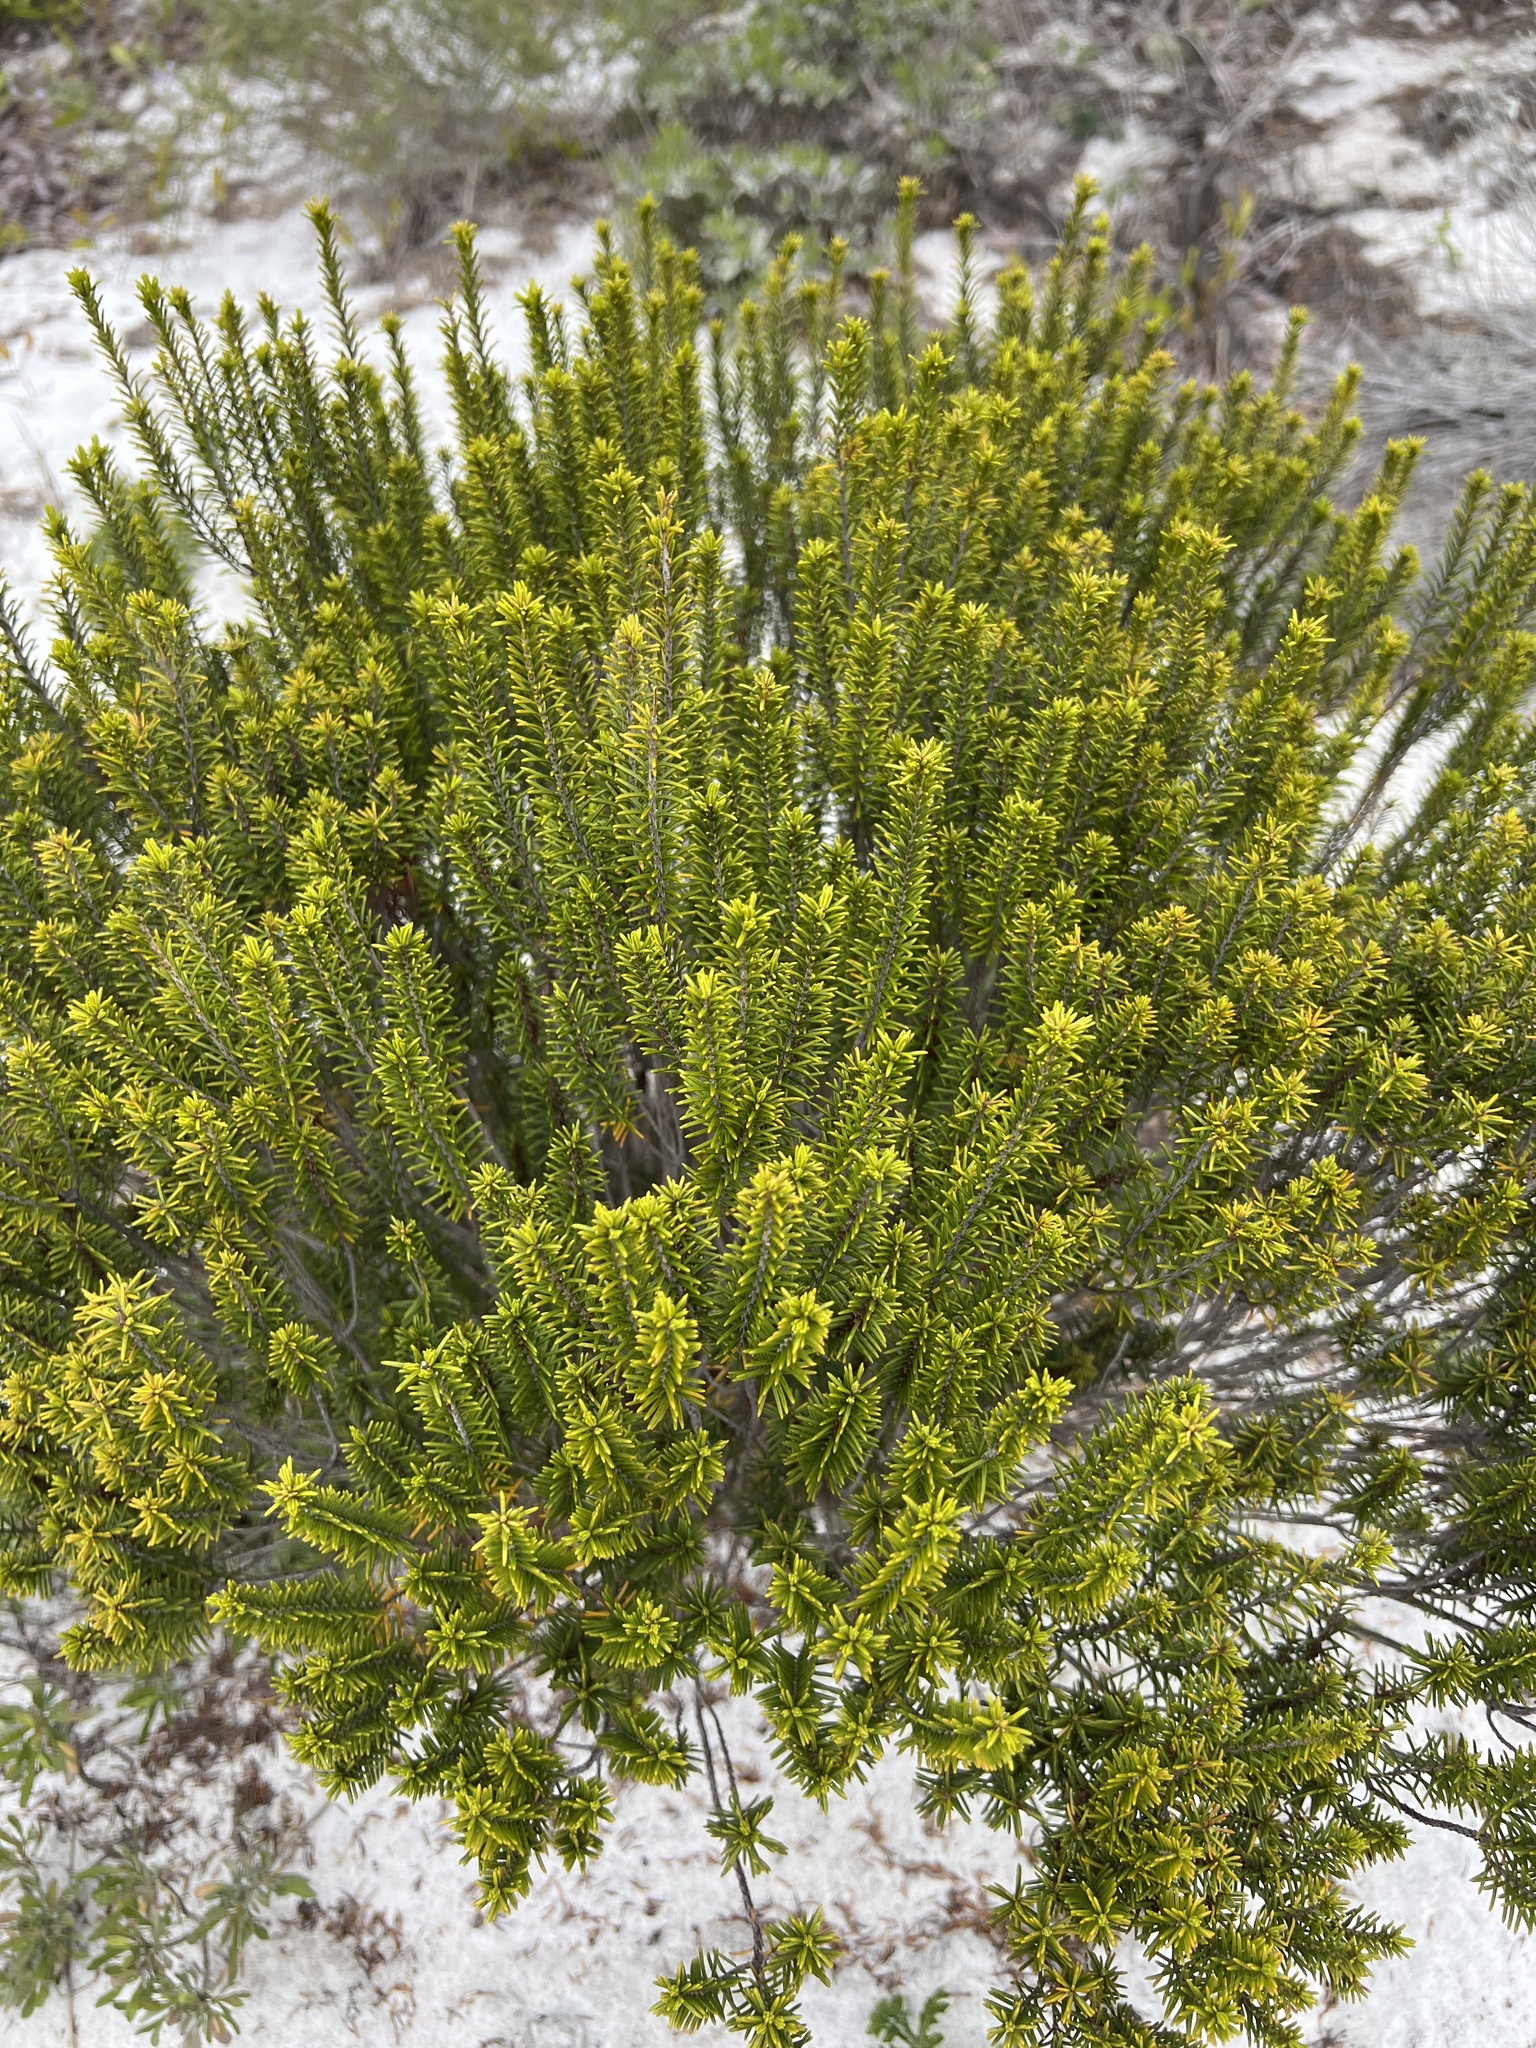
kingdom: Plantae
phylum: Tracheophyta
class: Magnoliopsida
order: Ericales
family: Ericaceae
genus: Ceratiola
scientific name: Ceratiola ericoides
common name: Sandhill-rosemary
